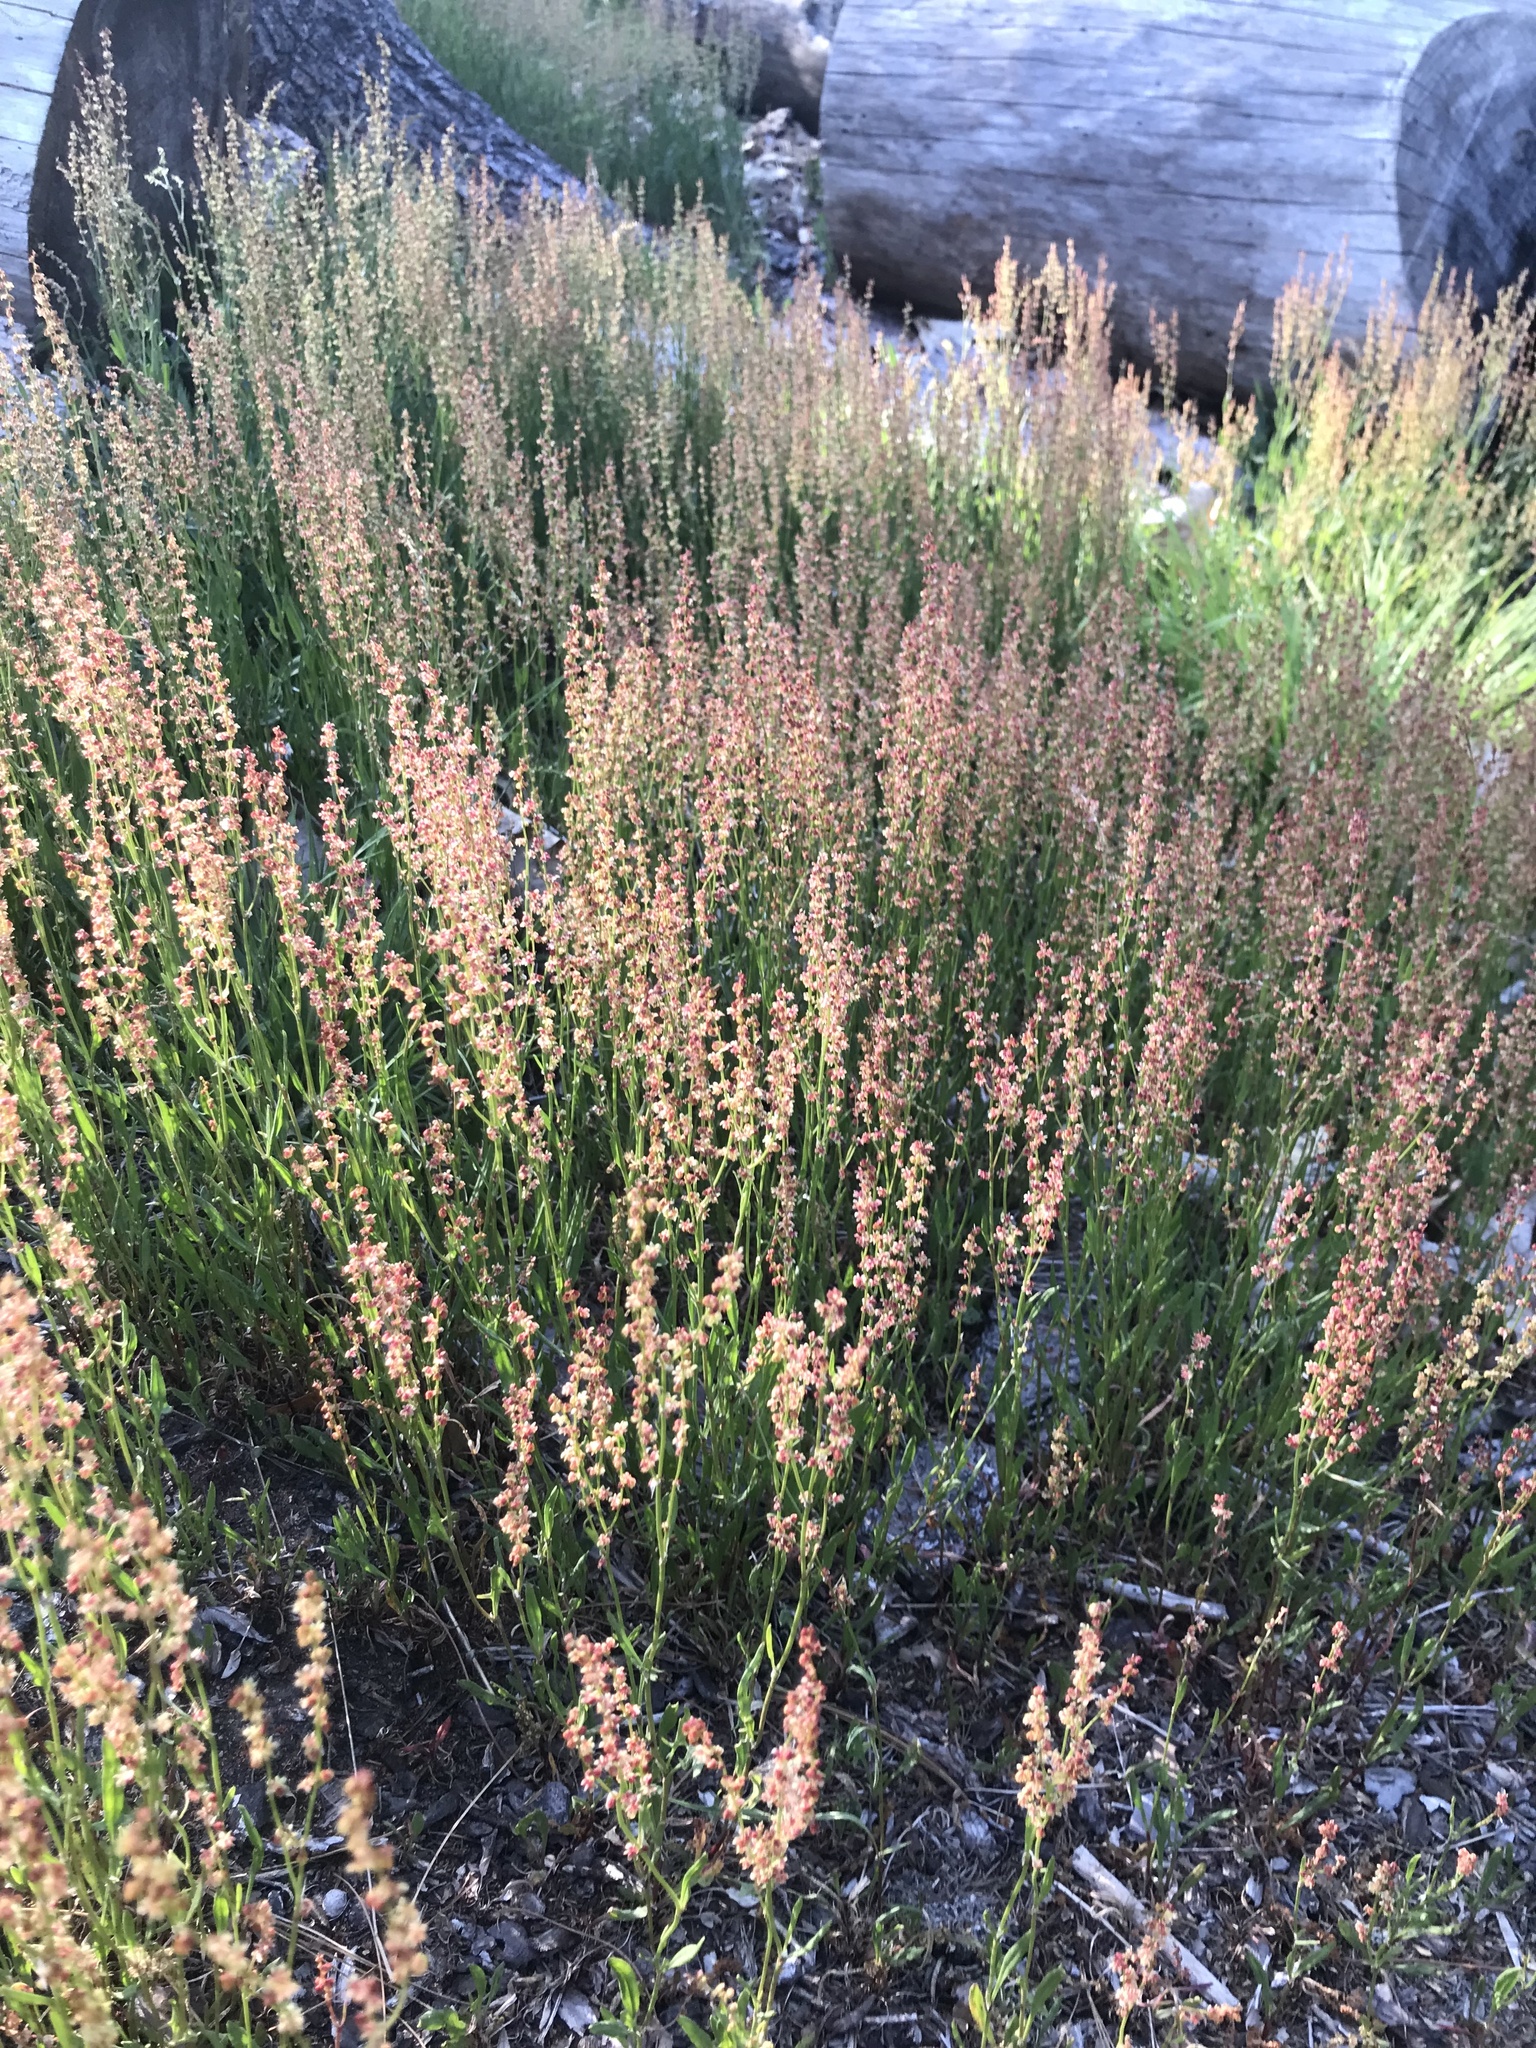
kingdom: Plantae
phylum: Tracheophyta
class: Magnoliopsida
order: Caryophyllales
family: Polygonaceae
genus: Rumex
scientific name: Rumex acetosella
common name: Common sheep sorrel
